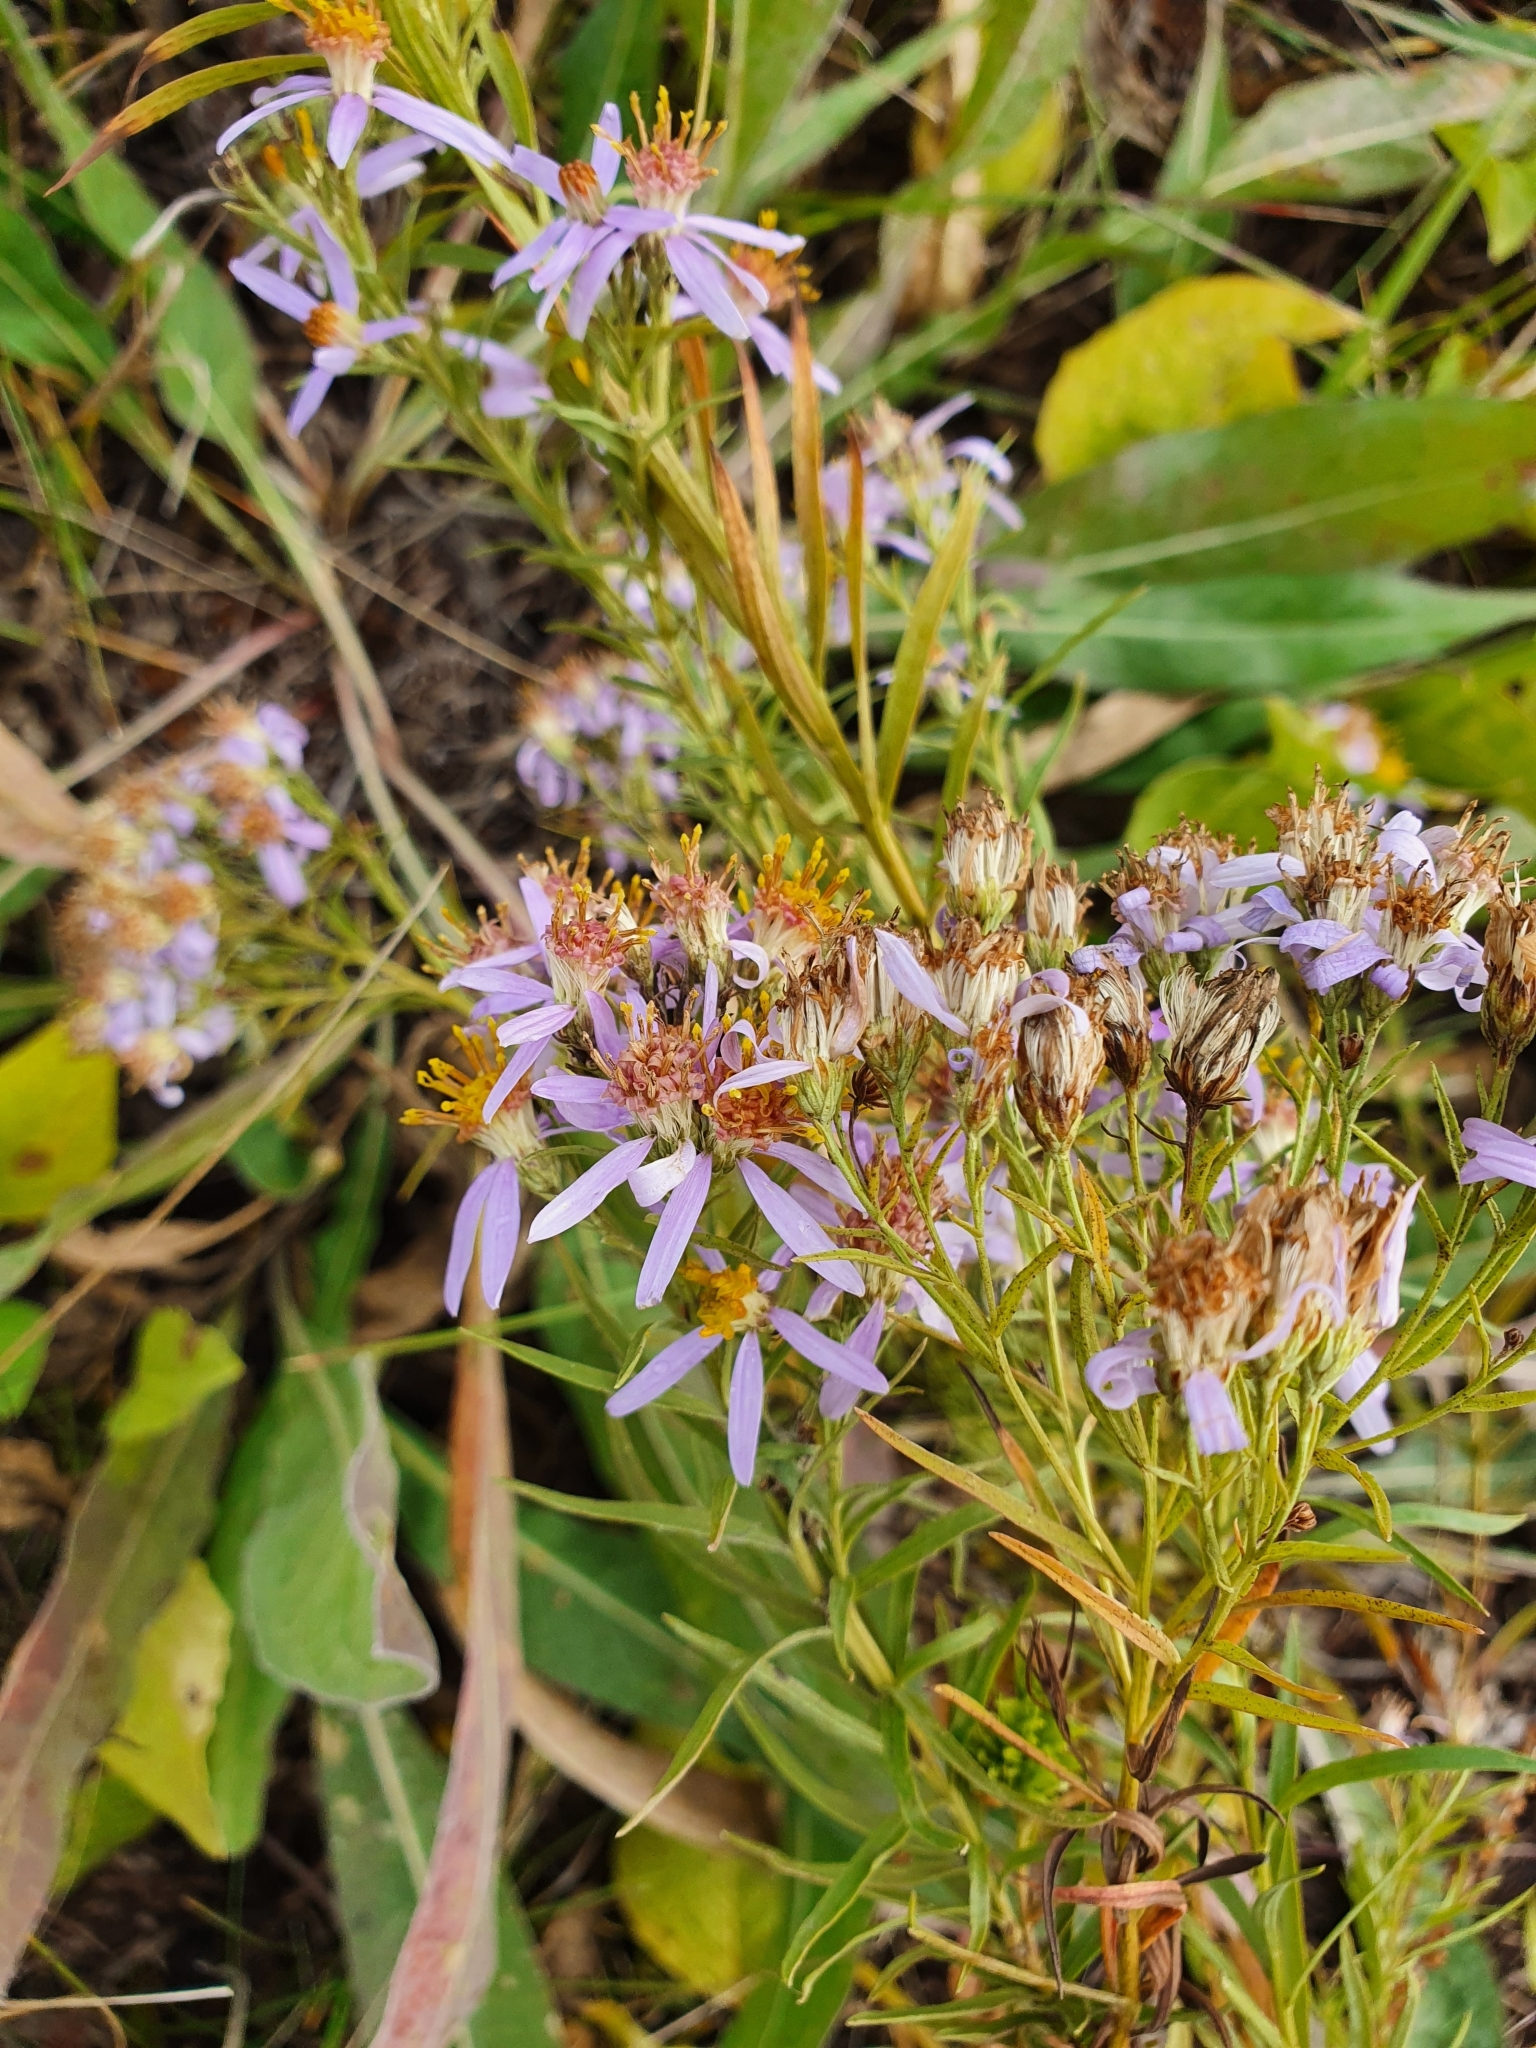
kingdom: Plantae
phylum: Tracheophyta
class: Magnoliopsida
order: Asterales
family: Asteraceae
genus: Galatella
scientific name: Galatella sedifolia
